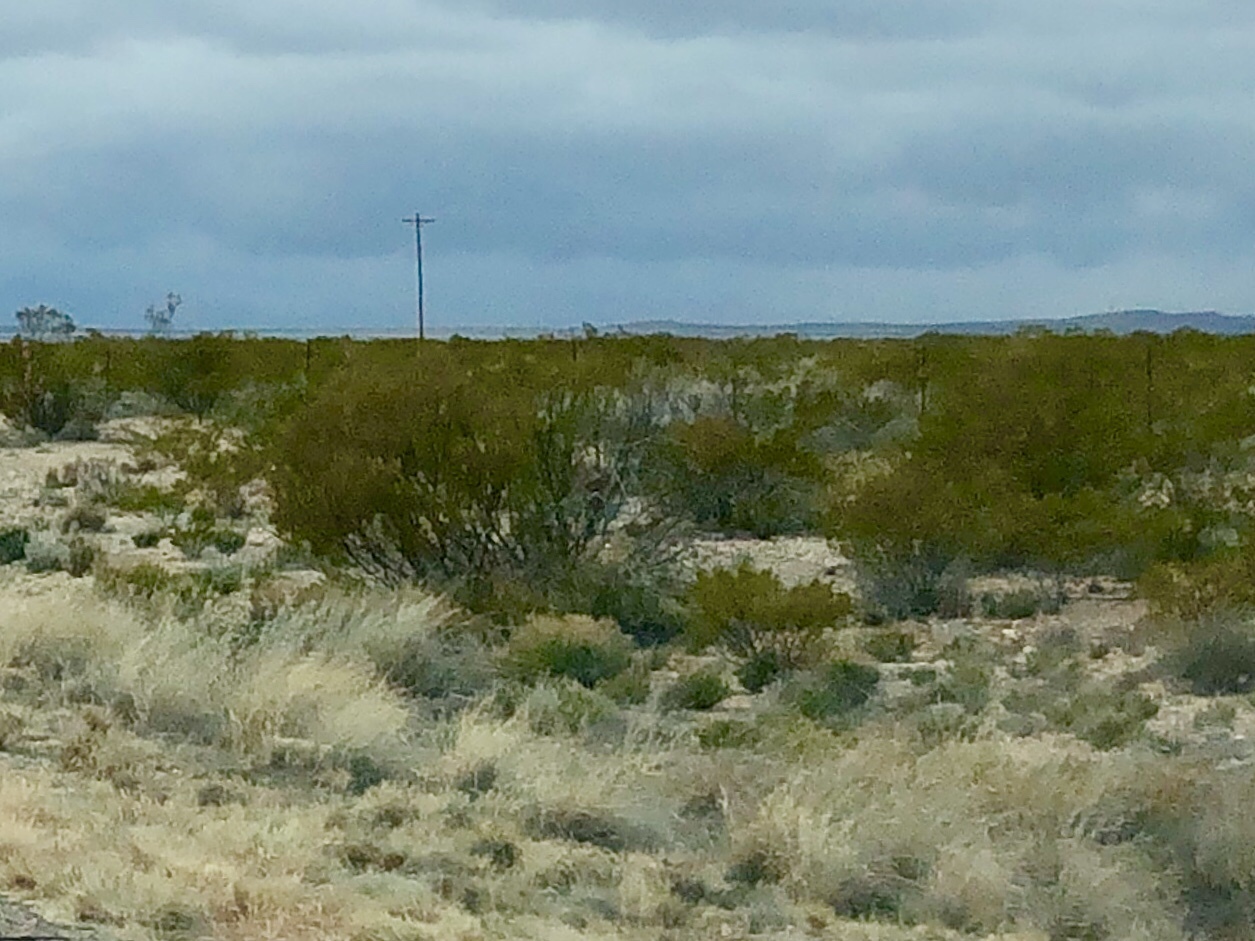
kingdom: Plantae
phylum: Tracheophyta
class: Magnoliopsida
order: Zygophyllales
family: Zygophyllaceae
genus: Larrea
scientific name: Larrea tridentata
